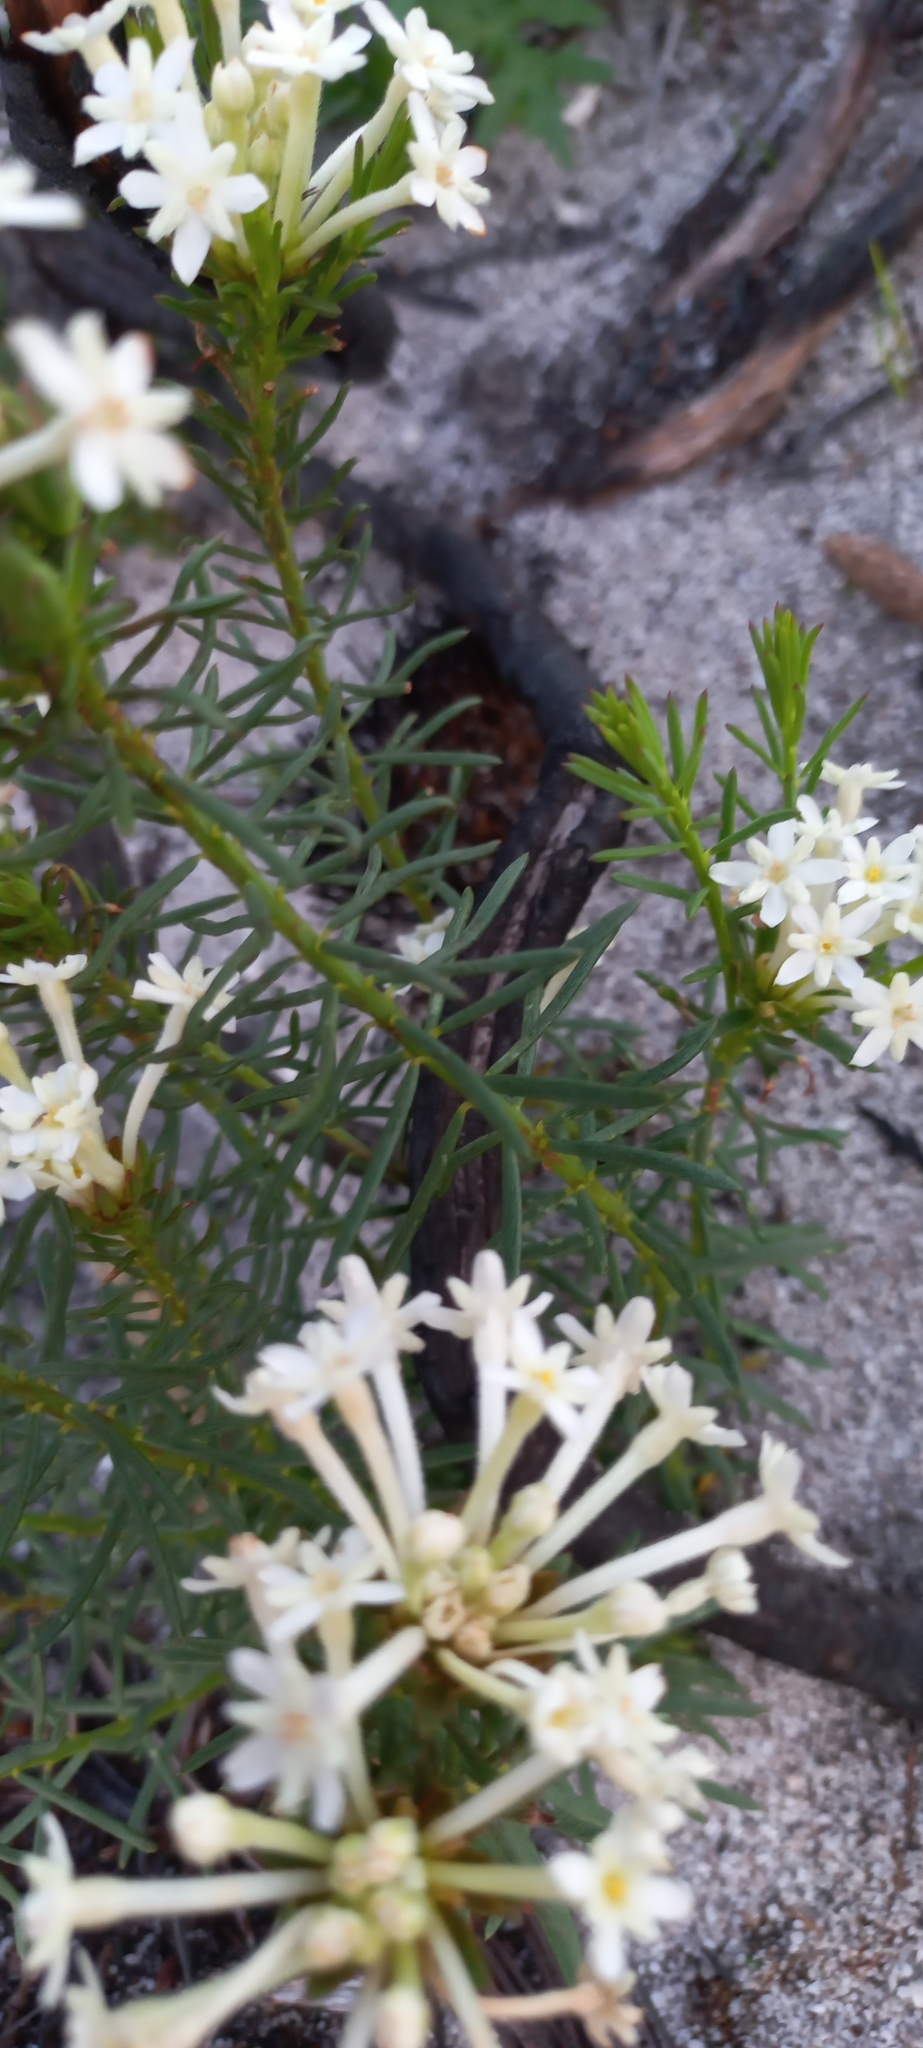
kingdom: Plantae
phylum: Tracheophyta
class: Magnoliopsida
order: Malvales
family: Thymelaeaceae
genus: Gnidia
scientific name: Gnidia pinifolia
